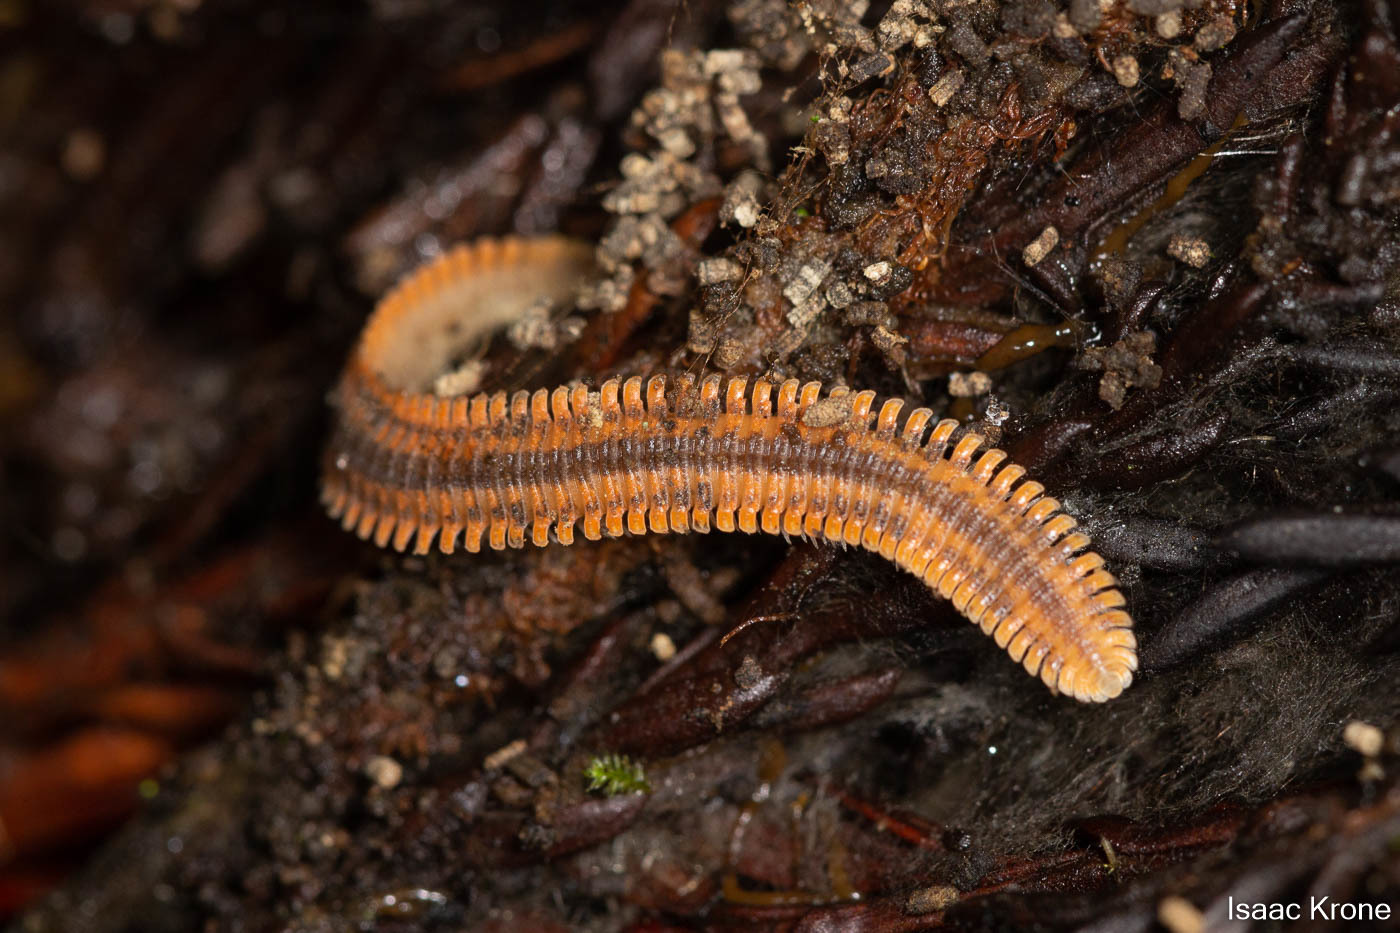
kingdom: Animalia
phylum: Arthropoda
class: Diplopoda
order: Platydesmida
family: Andrognathidae
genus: Brachycybe
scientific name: Brachycybe producta
